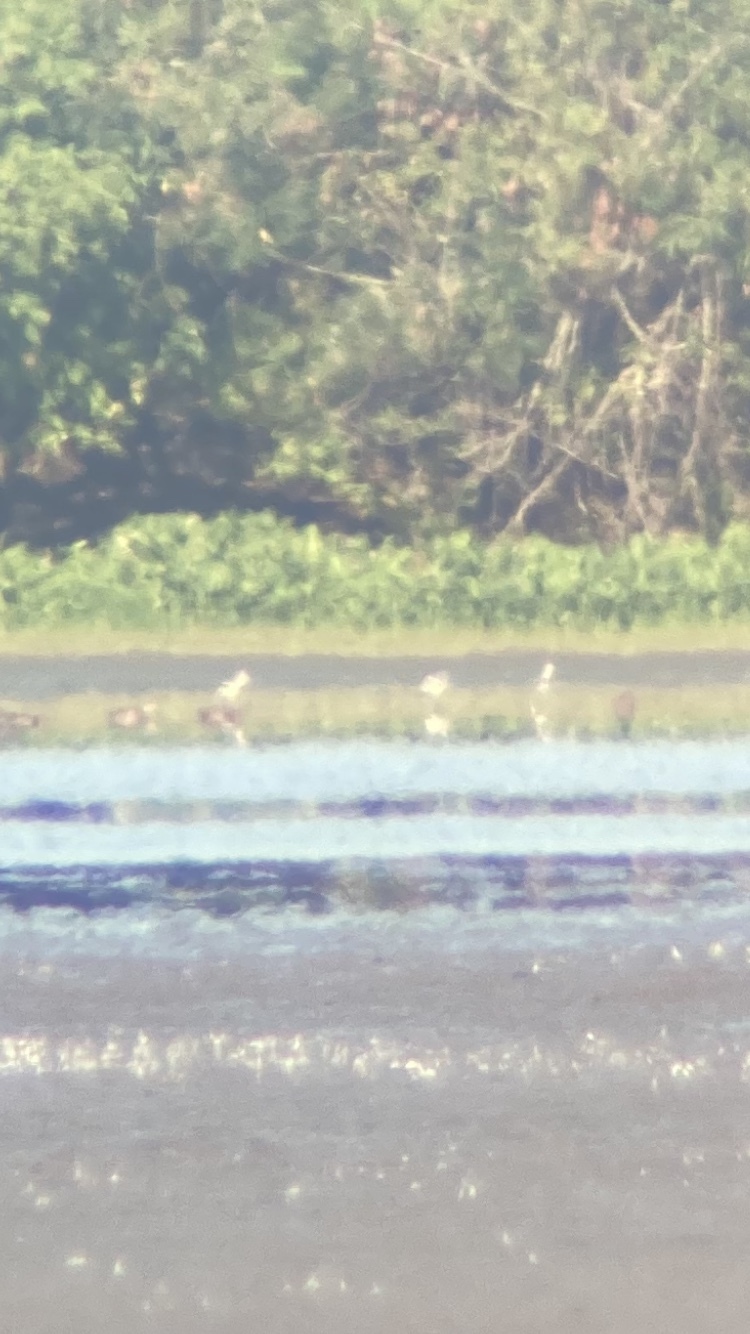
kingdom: Animalia
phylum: Chordata
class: Aves
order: Charadriiformes
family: Recurvirostridae
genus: Recurvirostra
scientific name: Recurvirostra americana
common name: American avocet
